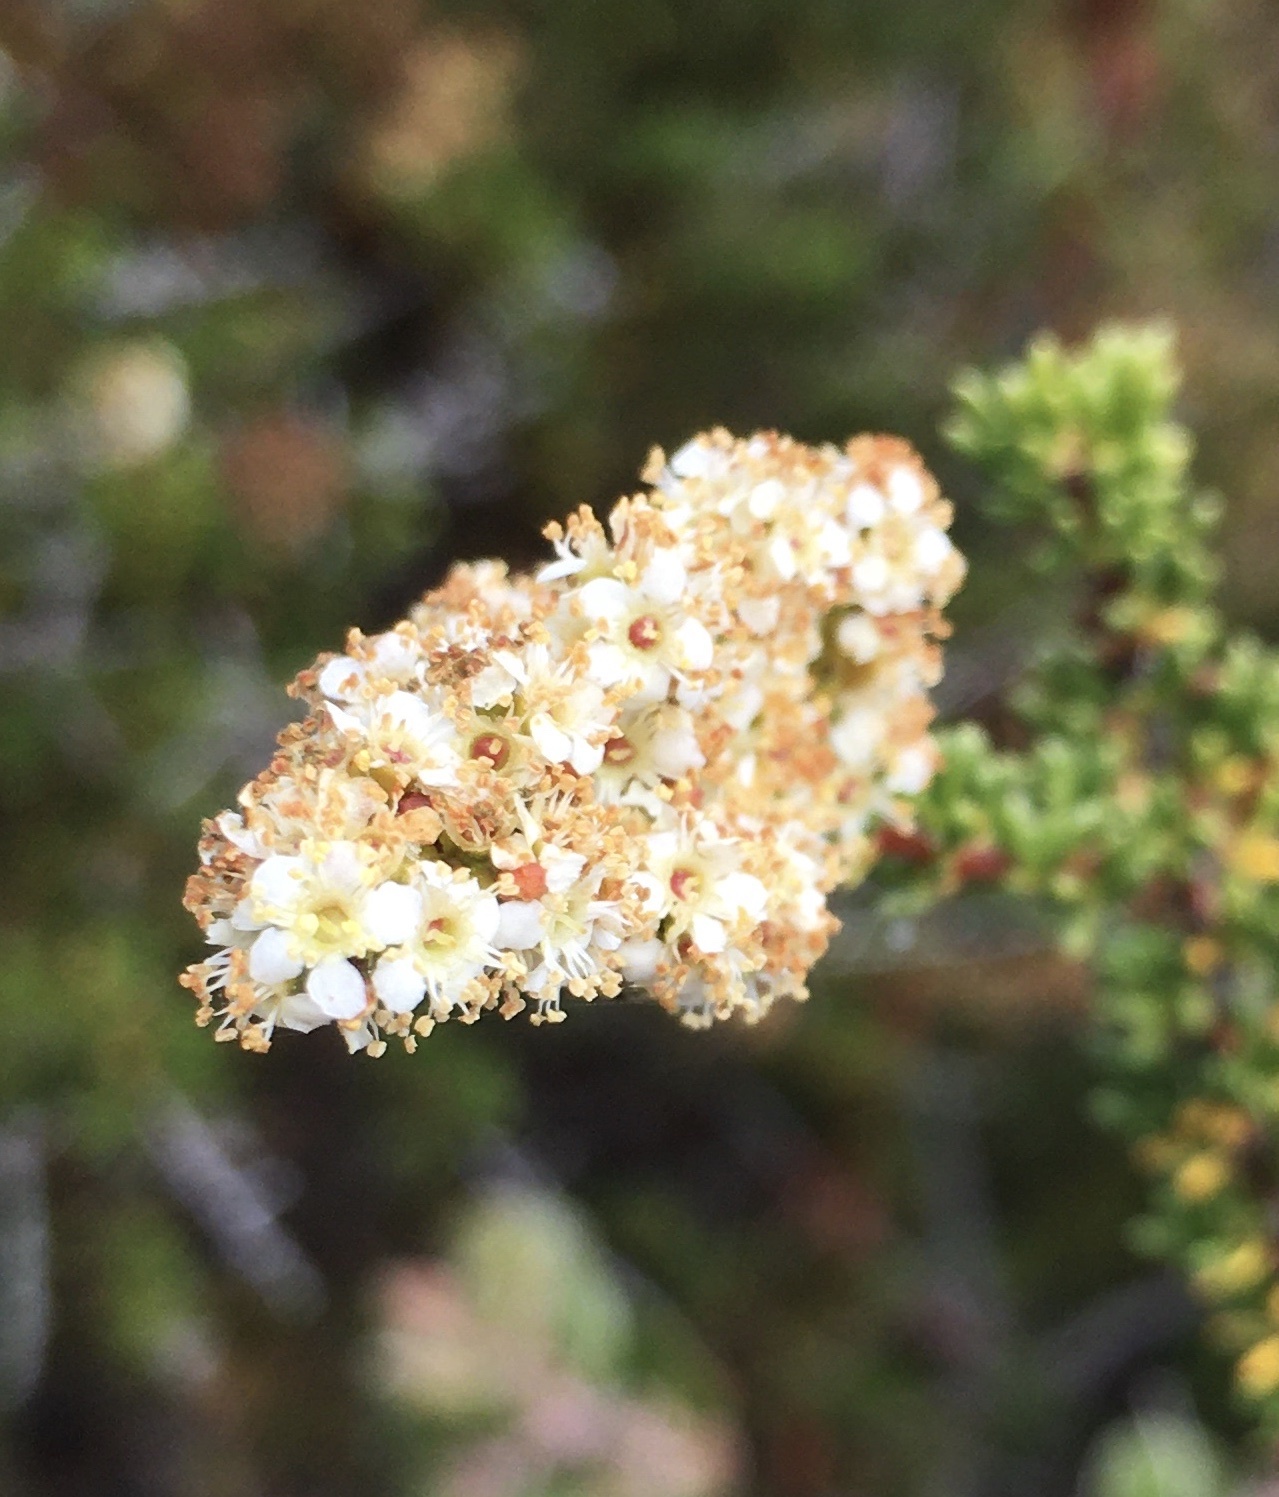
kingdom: Plantae
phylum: Tracheophyta
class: Magnoliopsida
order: Rosales
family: Rosaceae
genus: Adenostoma
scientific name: Adenostoma fasciculatum
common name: Chamise
